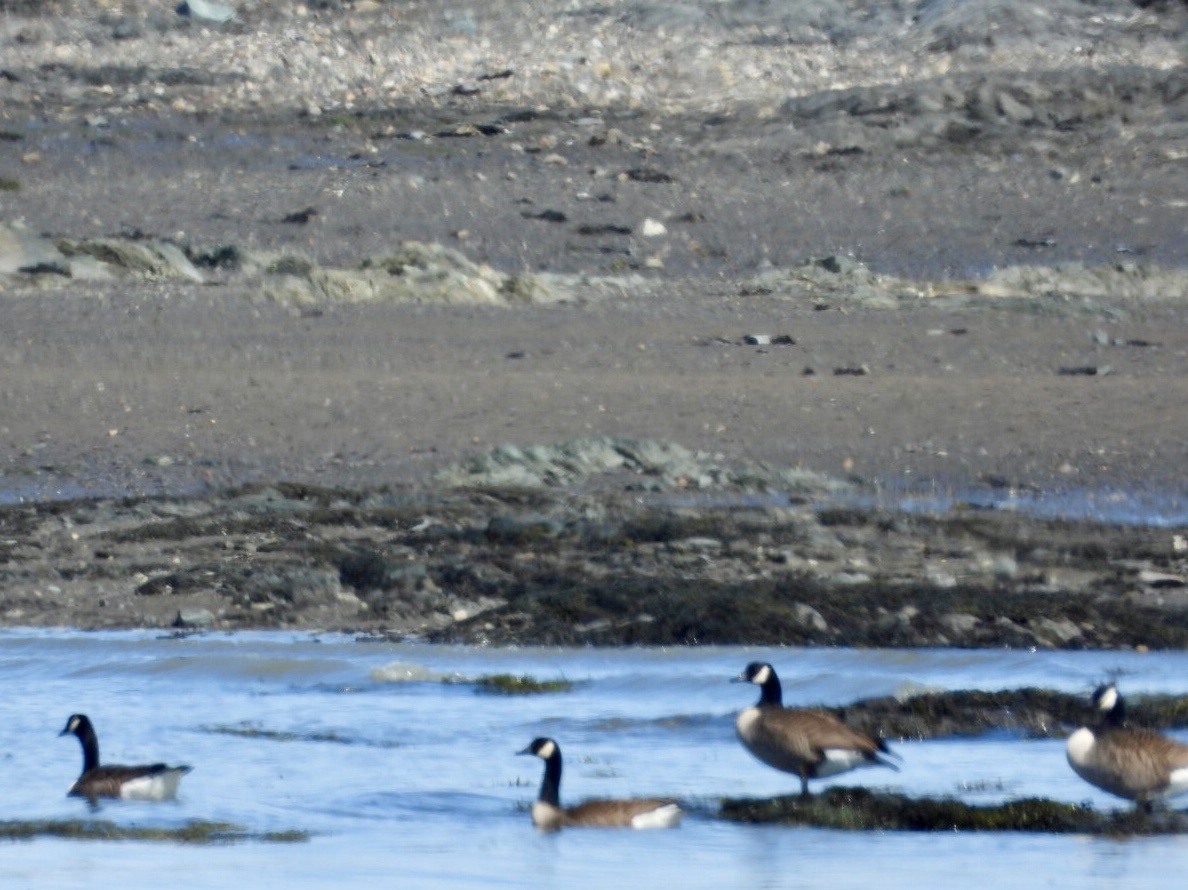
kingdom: Animalia
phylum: Chordata
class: Aves
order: Anseriformes
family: Anatidae
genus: Branta
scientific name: Branta canadensis
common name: Canada goose
